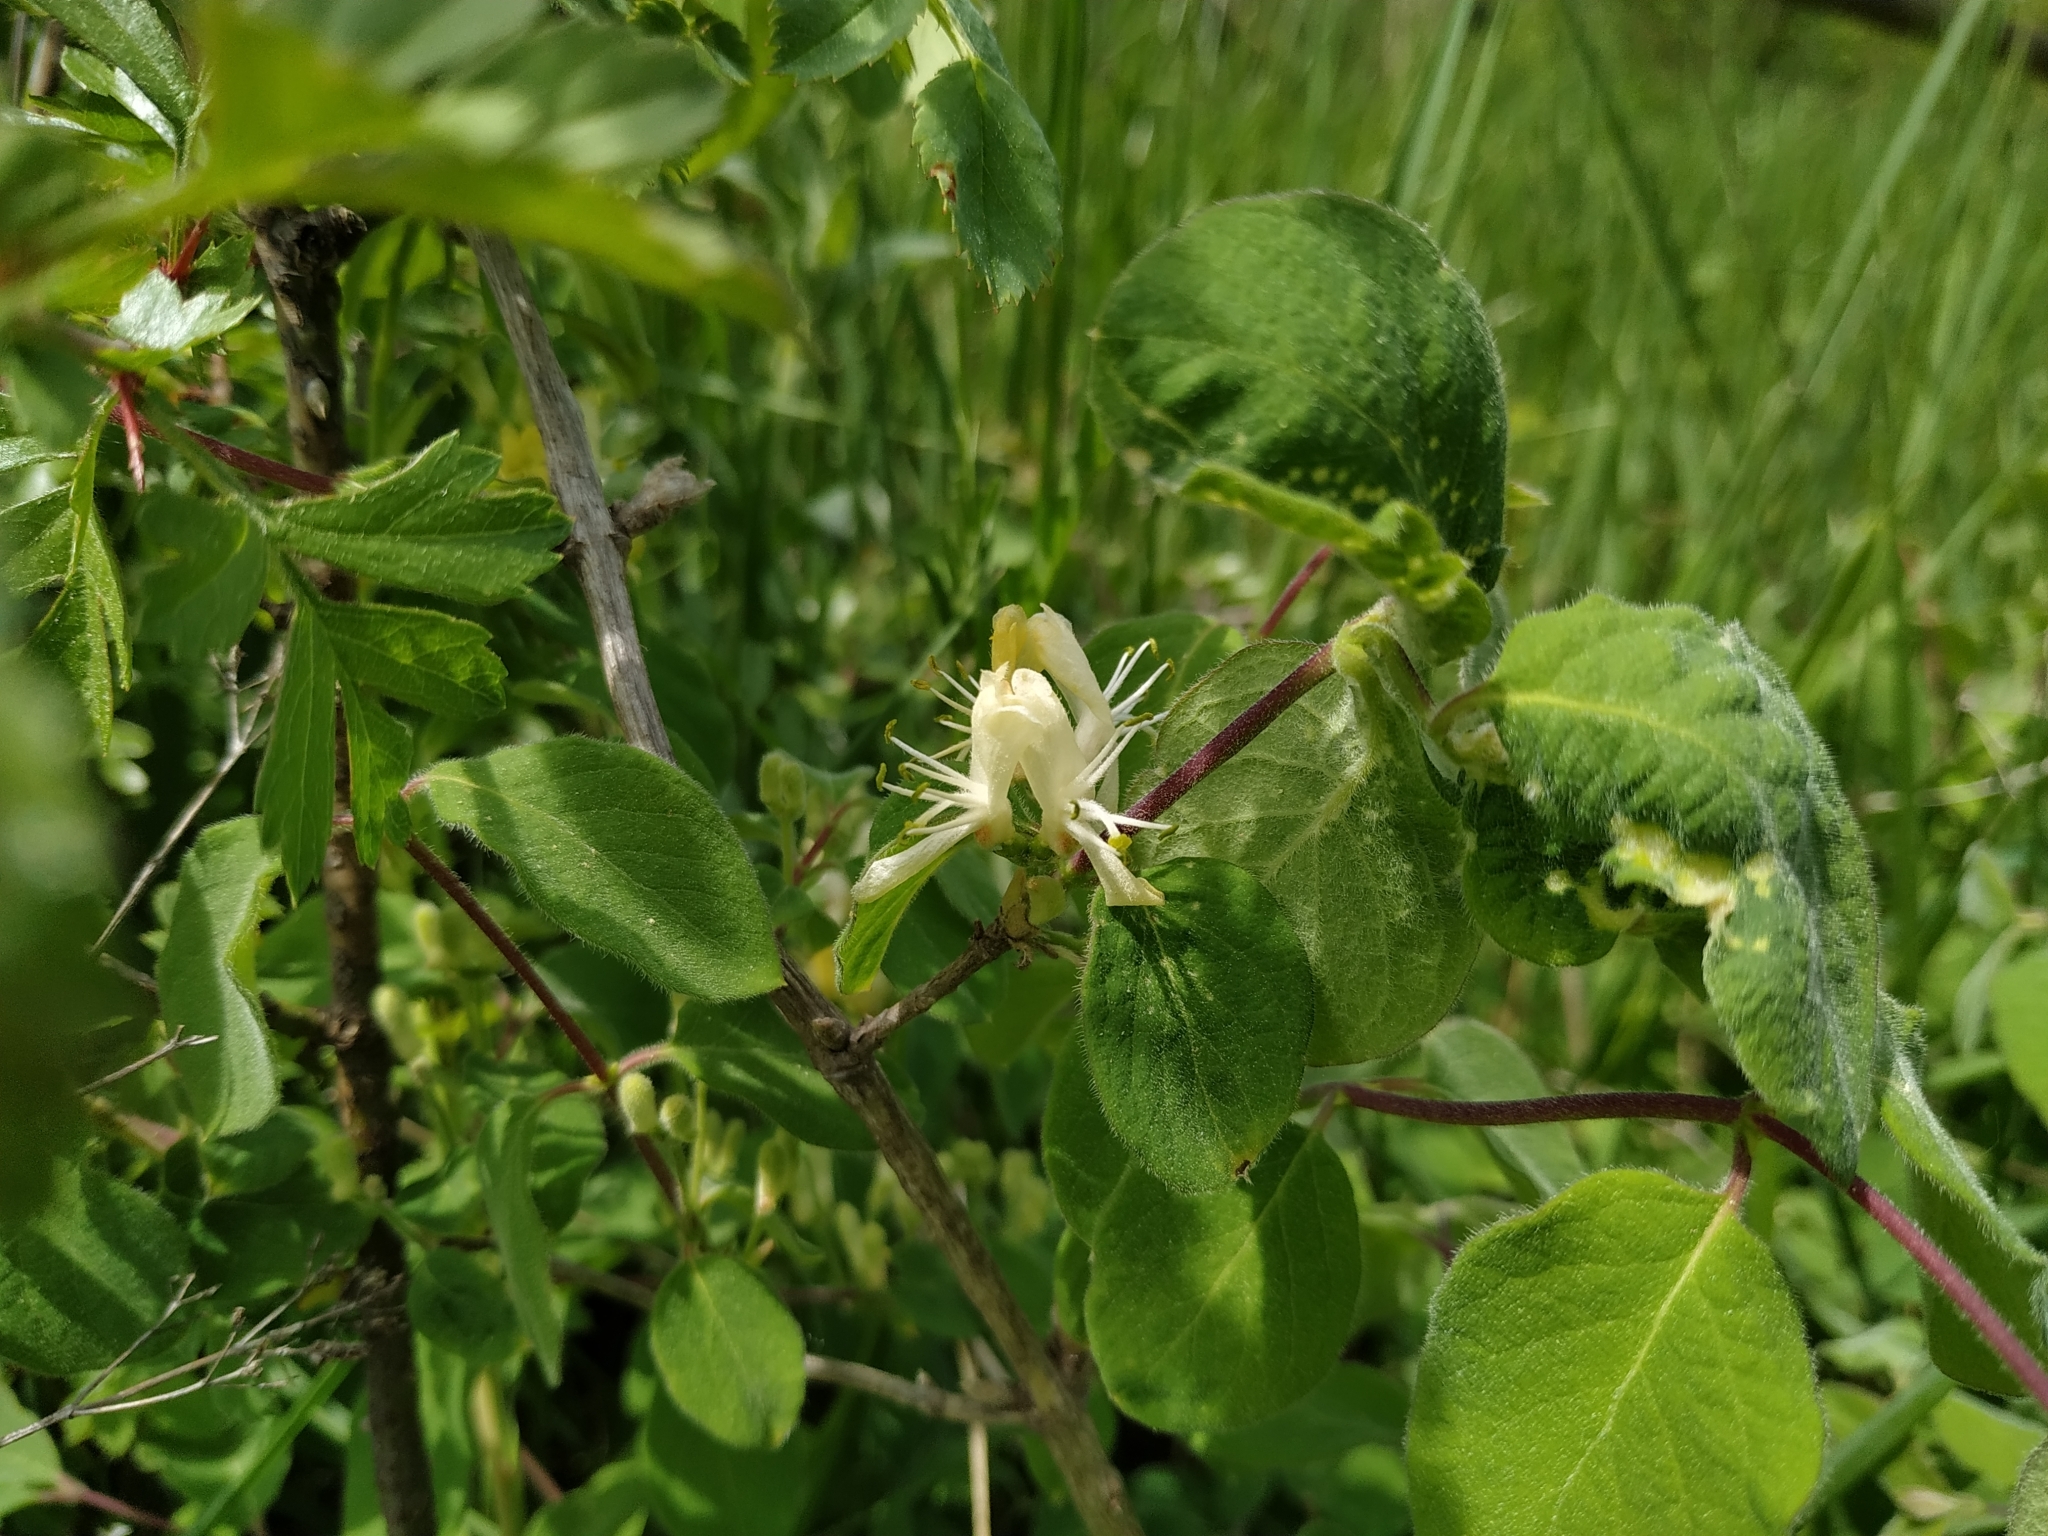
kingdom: Plantae
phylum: Tracheophyta
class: Magnoliopsida
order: Dipsacales
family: Caprifoliaceae
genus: Lonicera
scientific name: Lonicera xylosteum
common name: Fly honeysuckle
